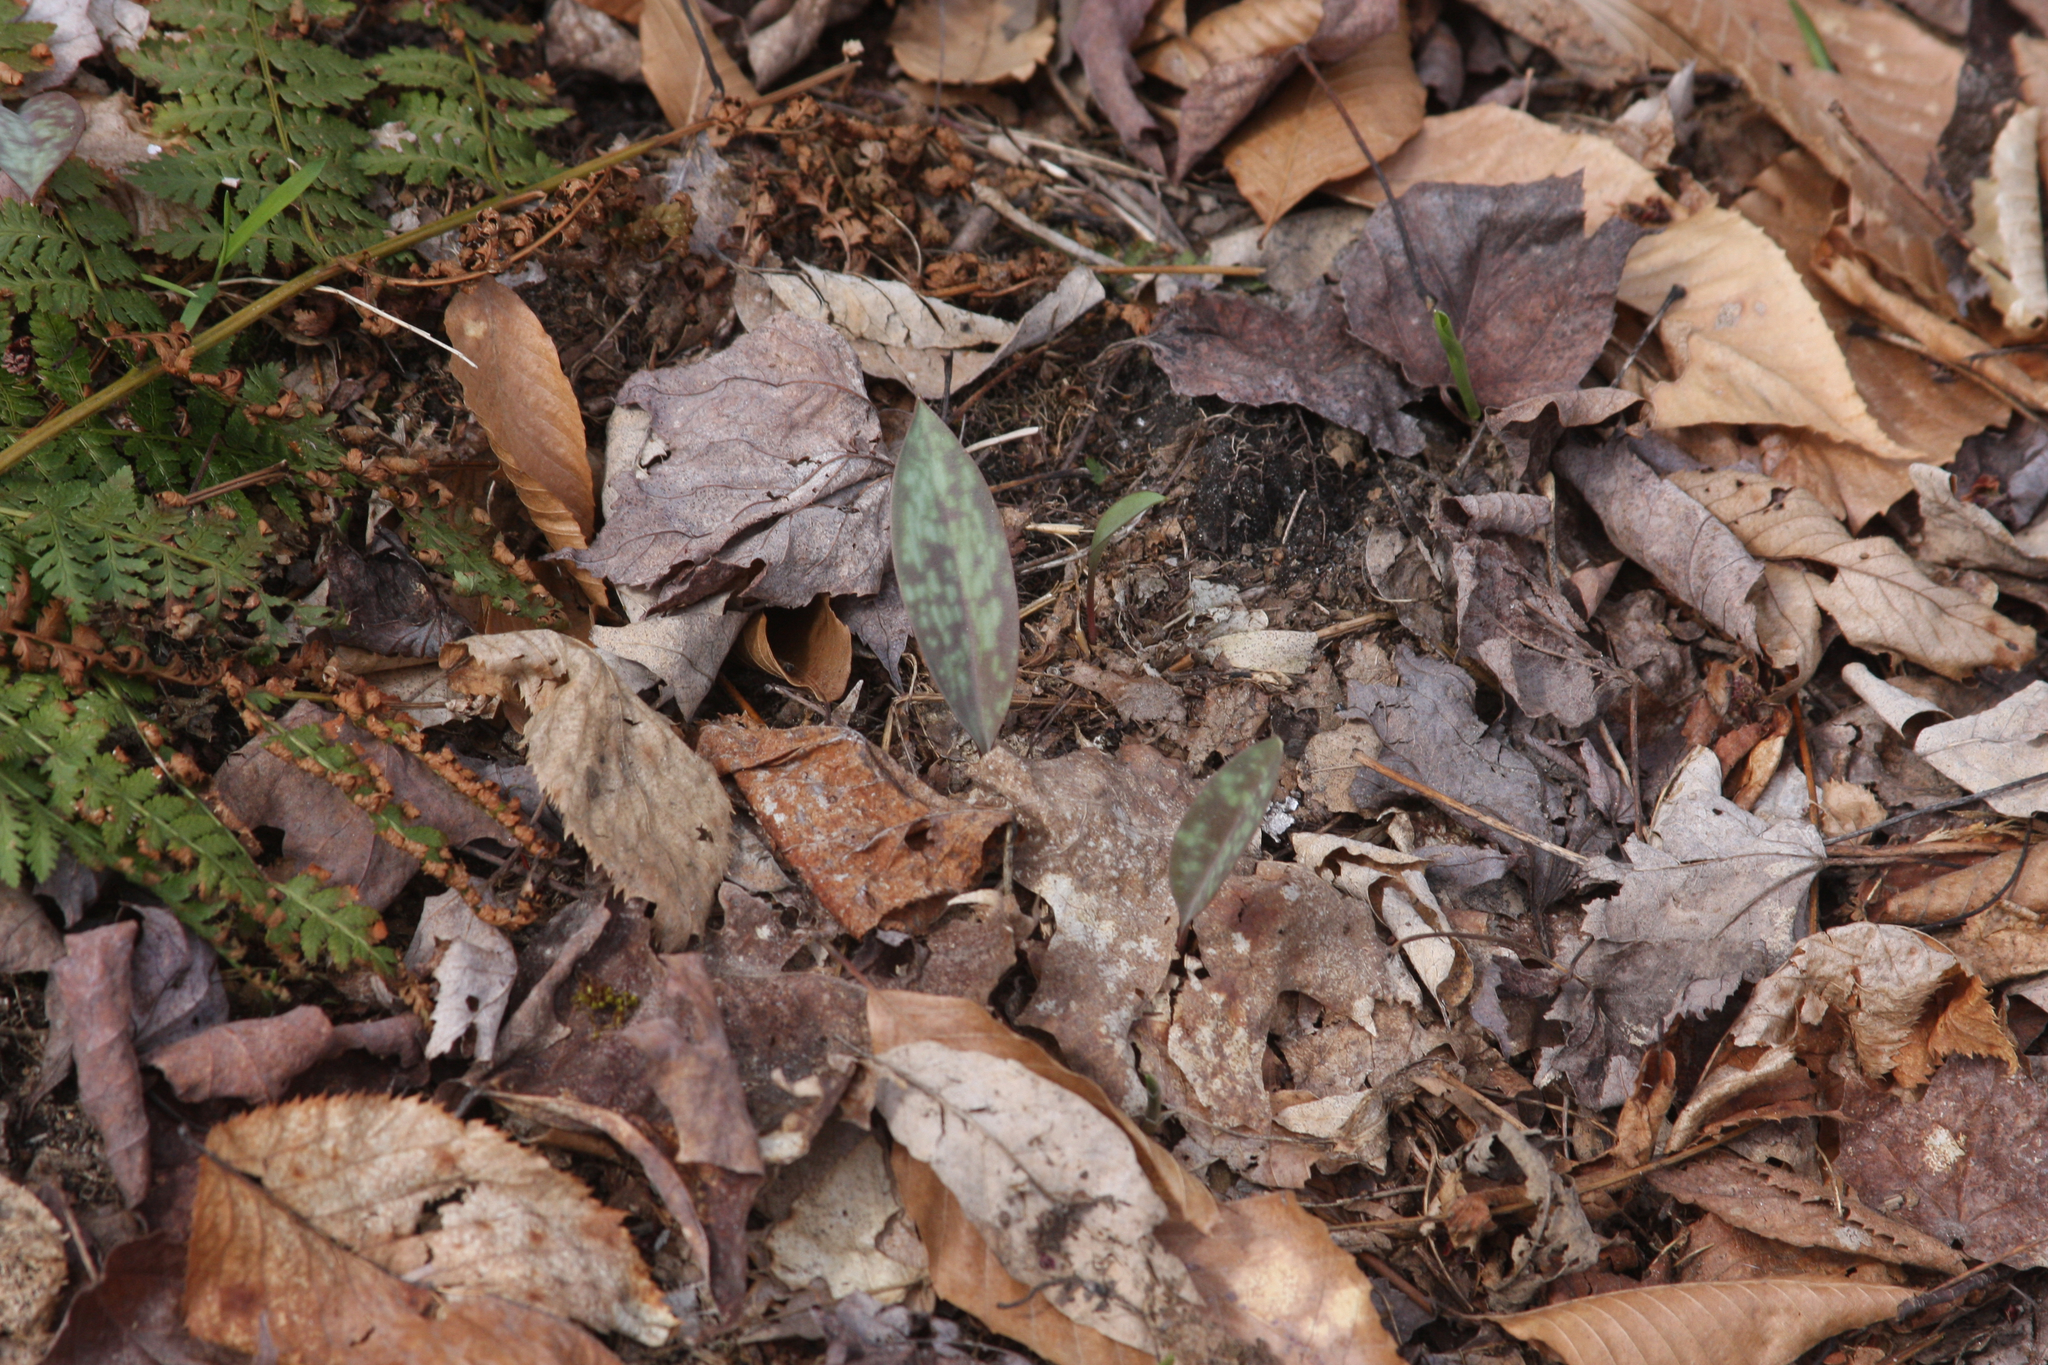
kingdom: Plantae
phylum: Tracheophyta
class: Liliopsida
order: Liliales
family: Liliaceae
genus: Erythronium
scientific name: Erythronium americanum
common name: Yellow adder's-tongue
